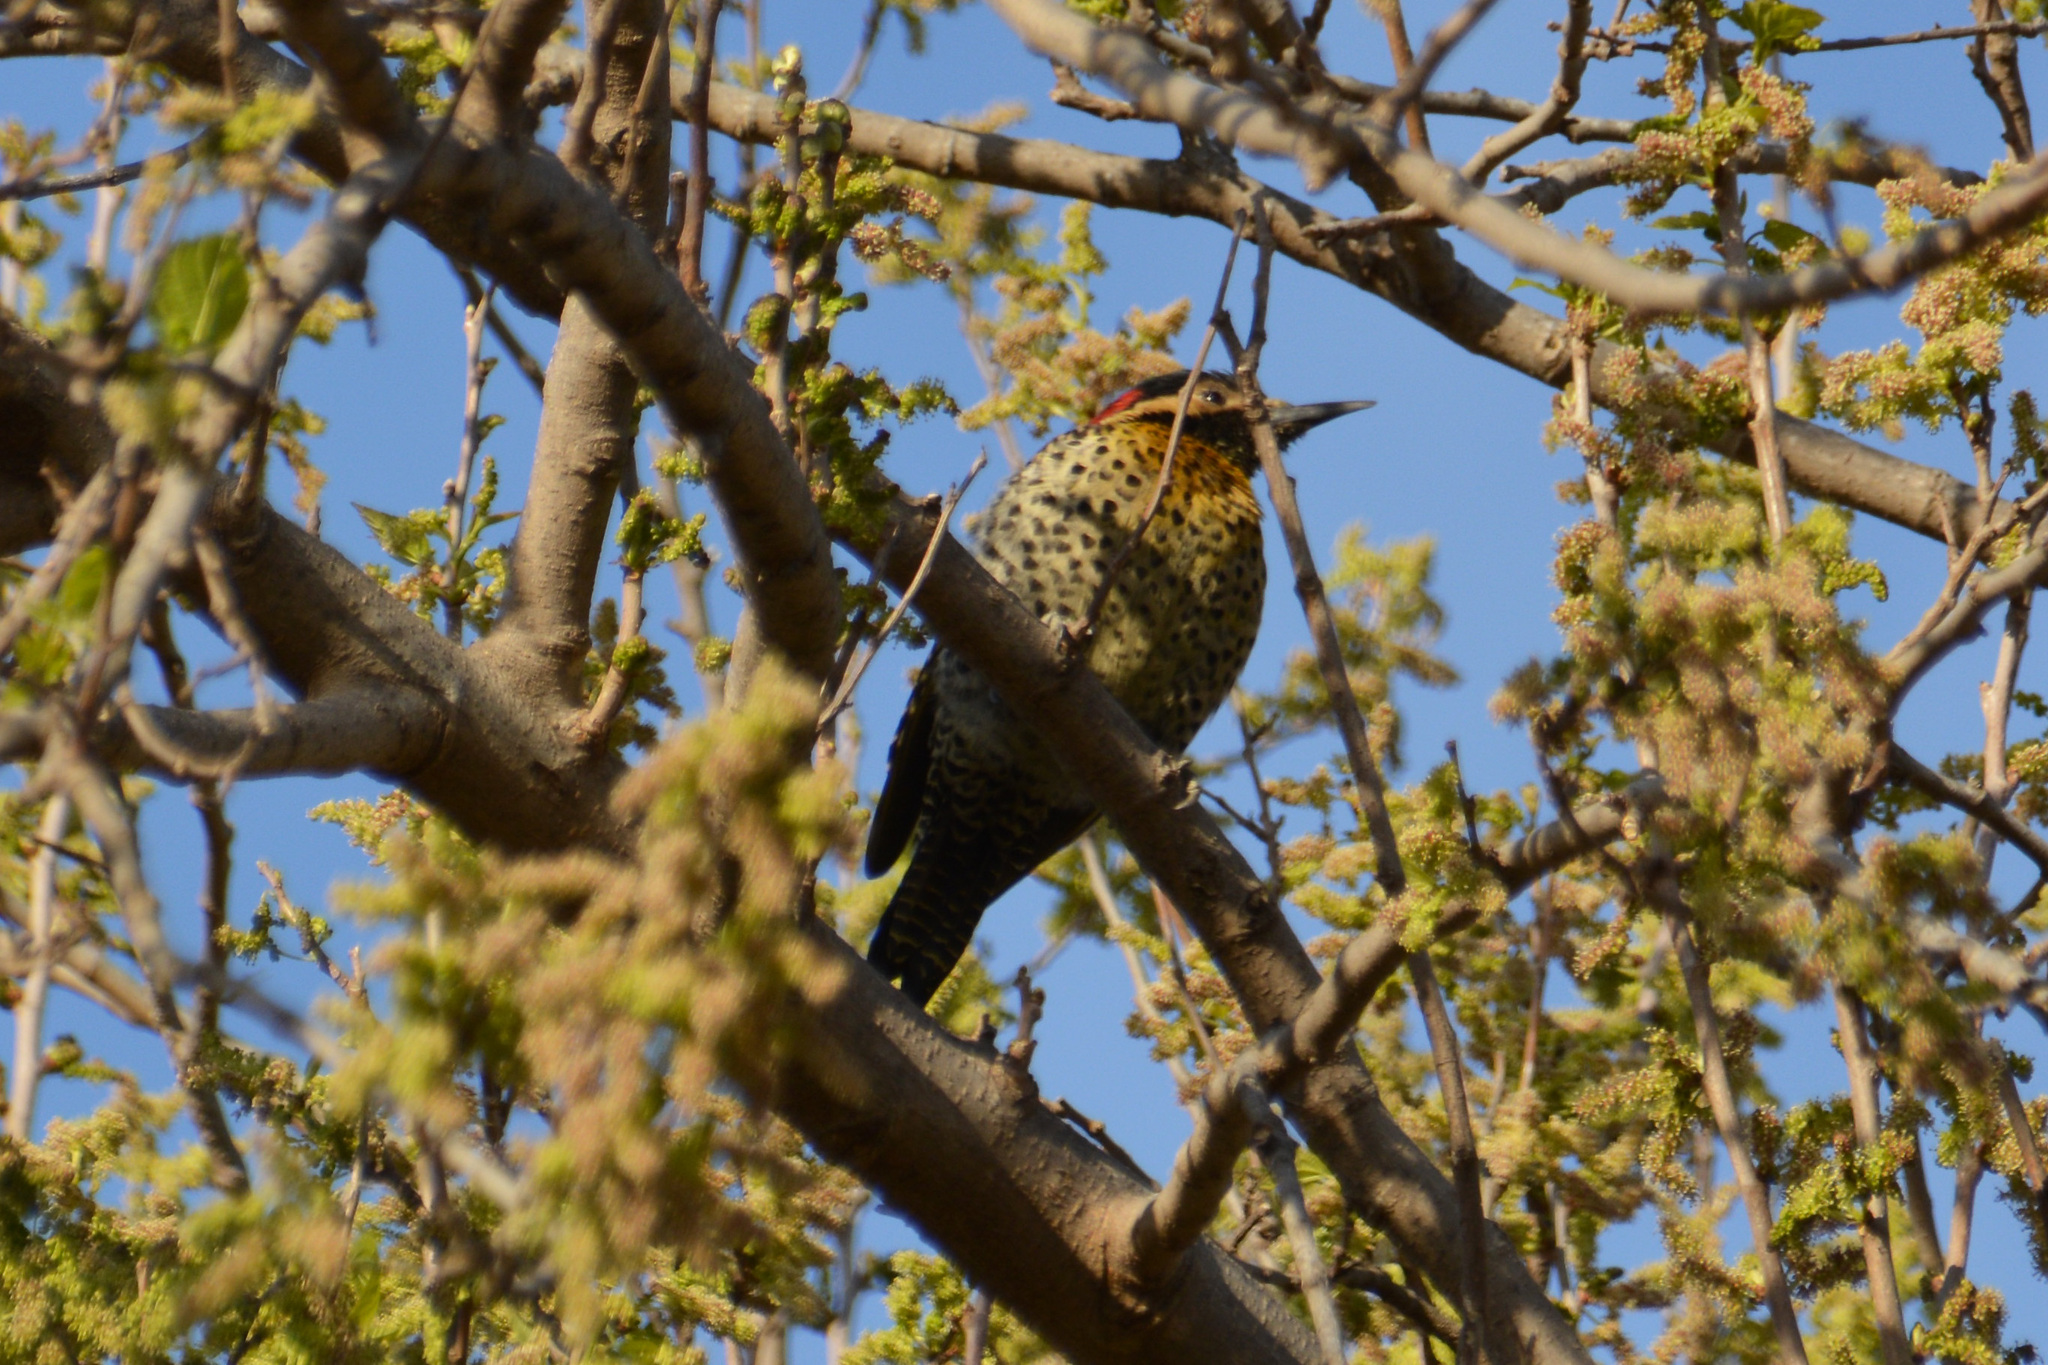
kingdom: Animalia
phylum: Chordata
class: Aves
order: Piciformes
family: Picidae
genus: Colaptes
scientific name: Colaptes melanochloros
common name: Green-barred woodpecker
